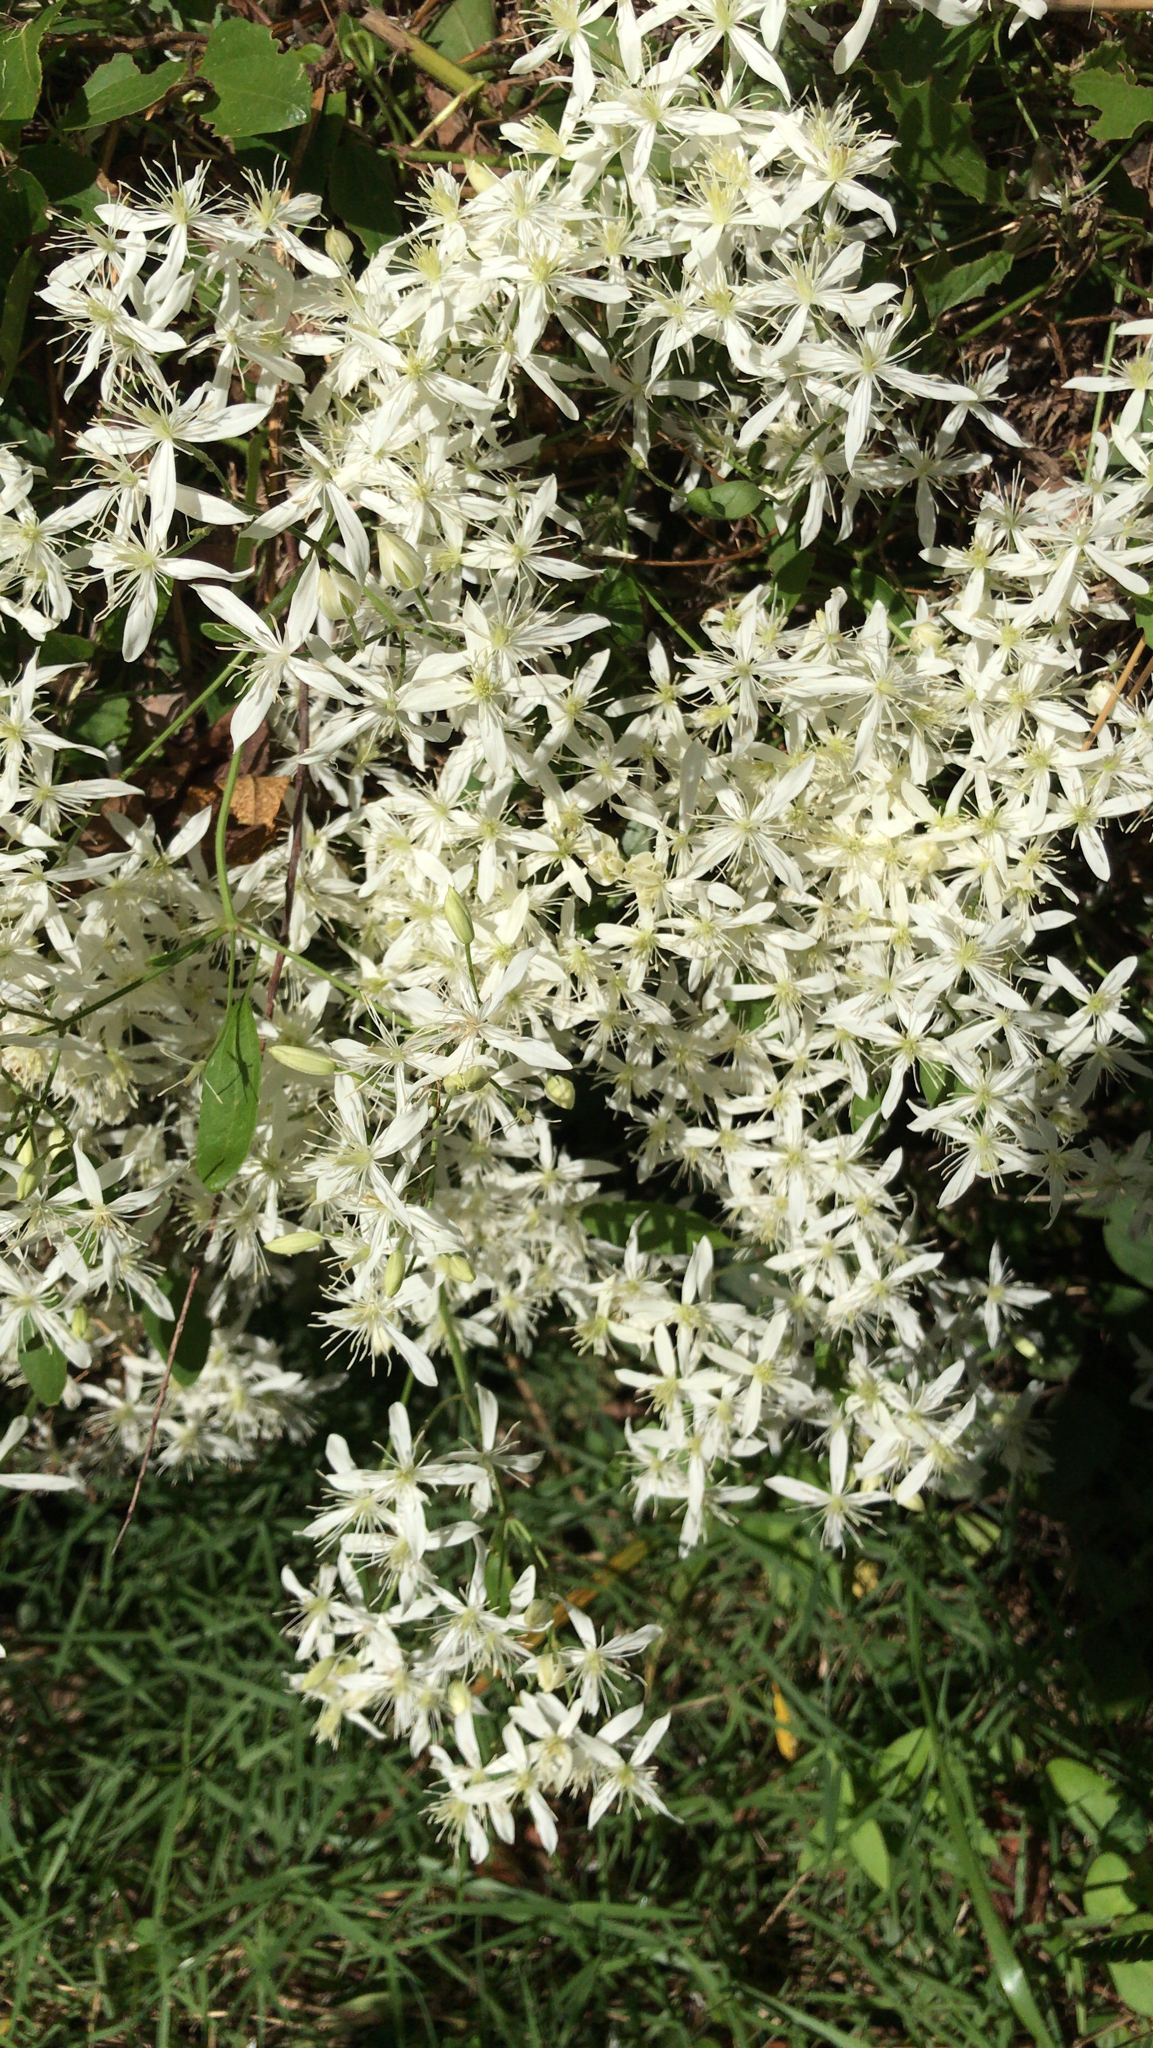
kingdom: Plantae
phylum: Tracheophyta
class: Magnoliopsida
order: Ranunculales
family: Ranunculaceae
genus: Clematis
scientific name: Clematis terniflora
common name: Sweet autumn clematis
